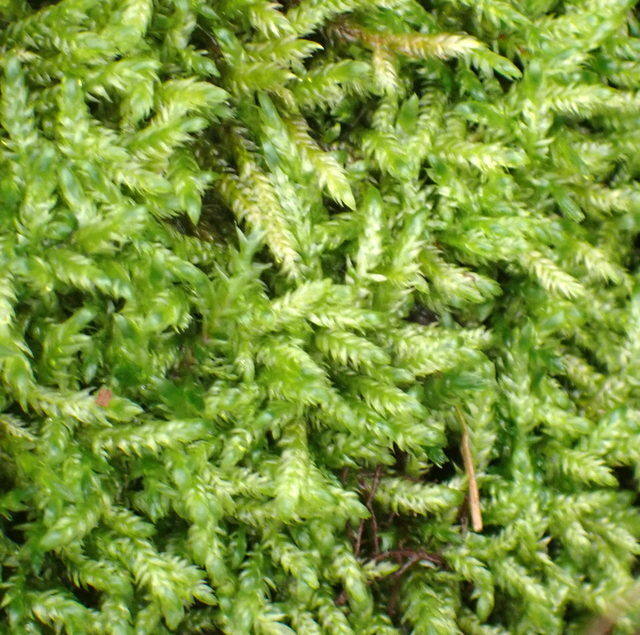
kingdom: Plantae
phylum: Bryophyta
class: Bryopsida
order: Hypnales
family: Pylaisiaceae
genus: Calliergonella
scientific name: Calliergonella lindbergii
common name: Lindberg's plait-moss
